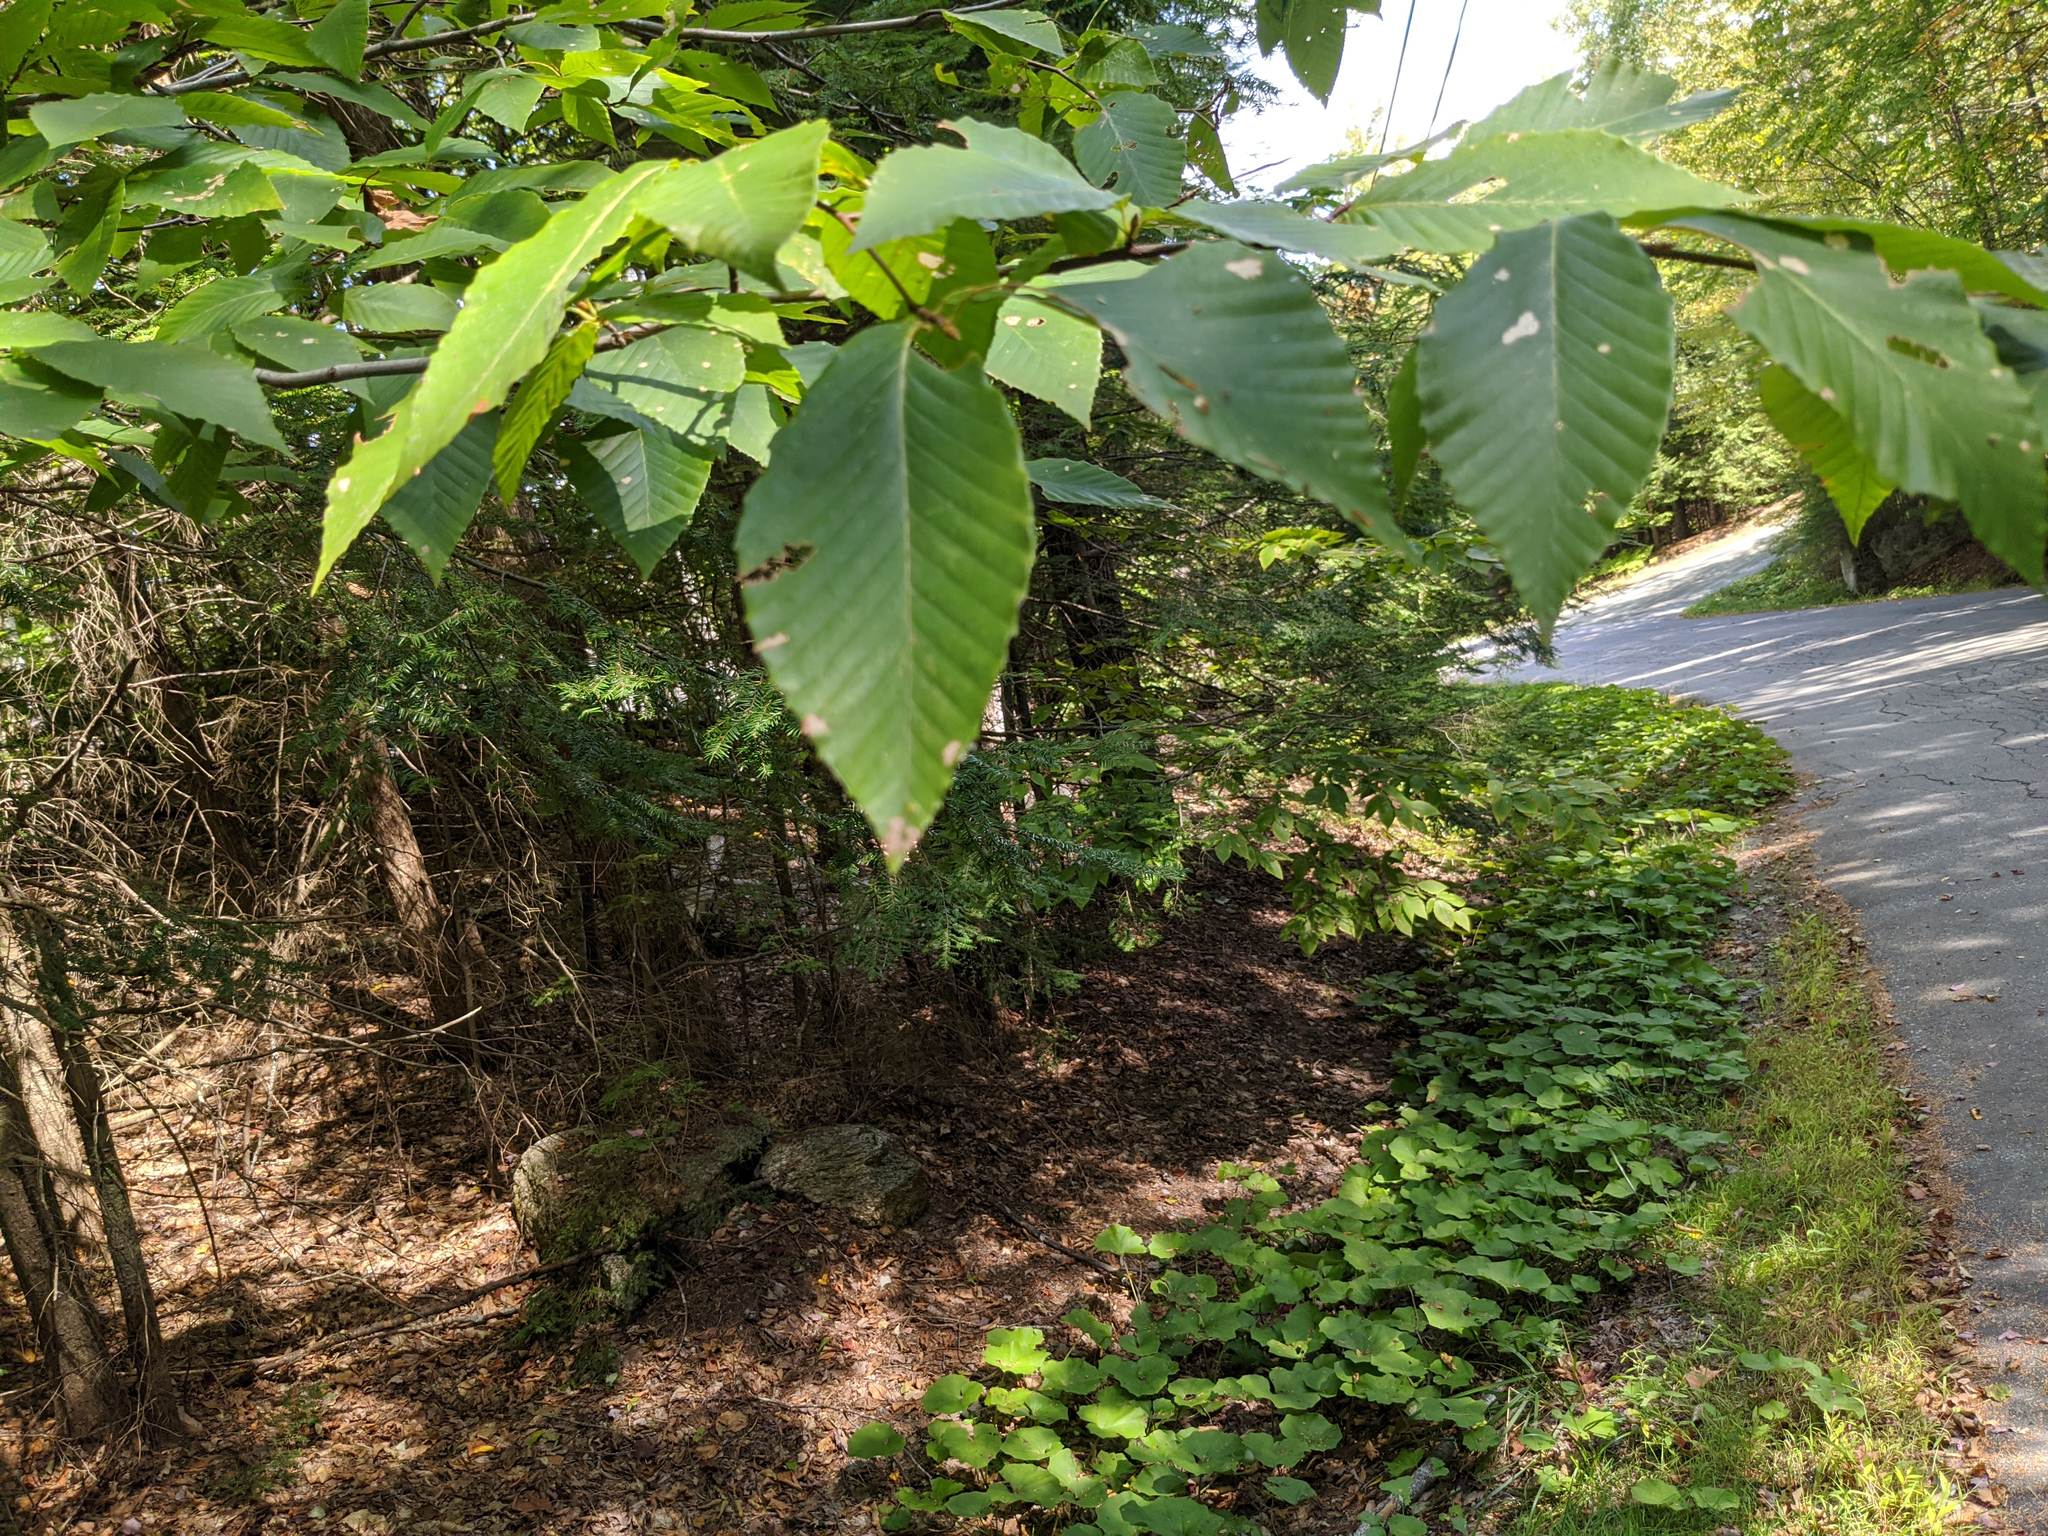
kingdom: Plantae
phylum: Tracheophyta
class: Magnoliopsida
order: Fagales
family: Fagaceae
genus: Fagus
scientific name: Fagus grandifolia
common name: American beech
